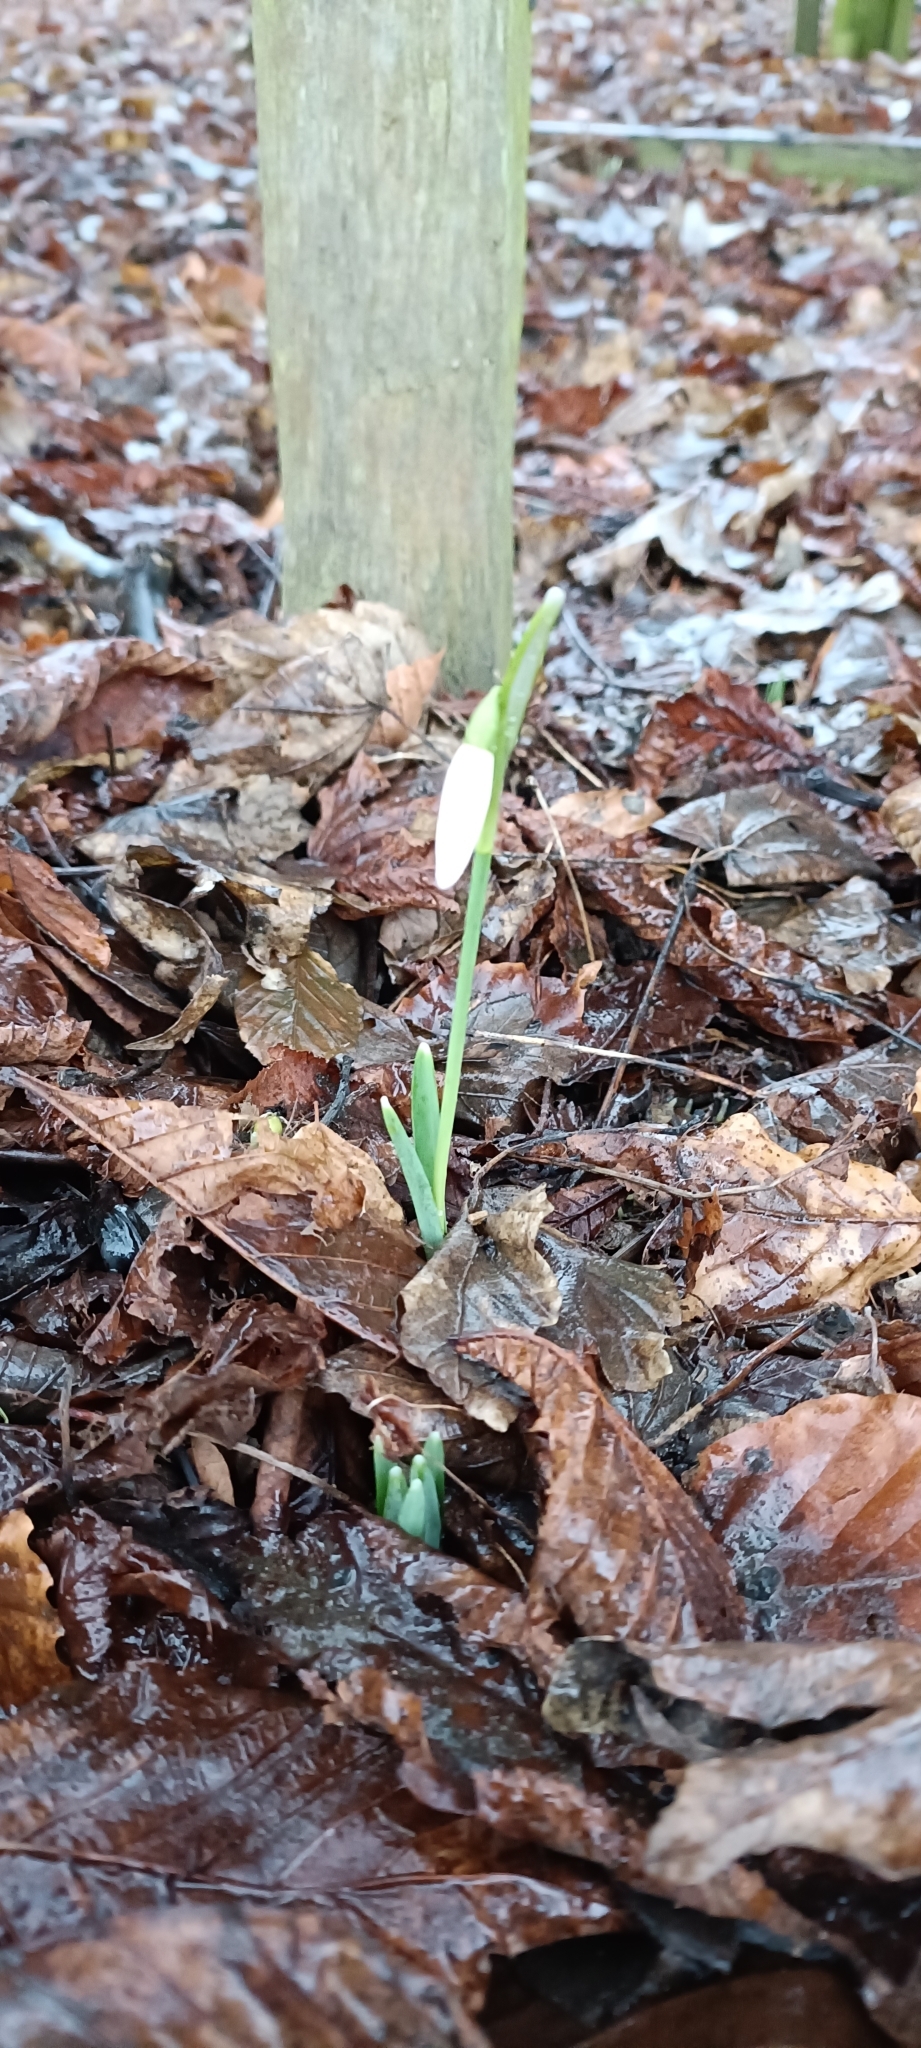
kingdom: Plantae
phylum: Tracheophyta
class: Liliopsida
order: Asparagales
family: Amaryllidaceae
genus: Galanthus
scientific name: Galanthus nivalis
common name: Snowdrop
